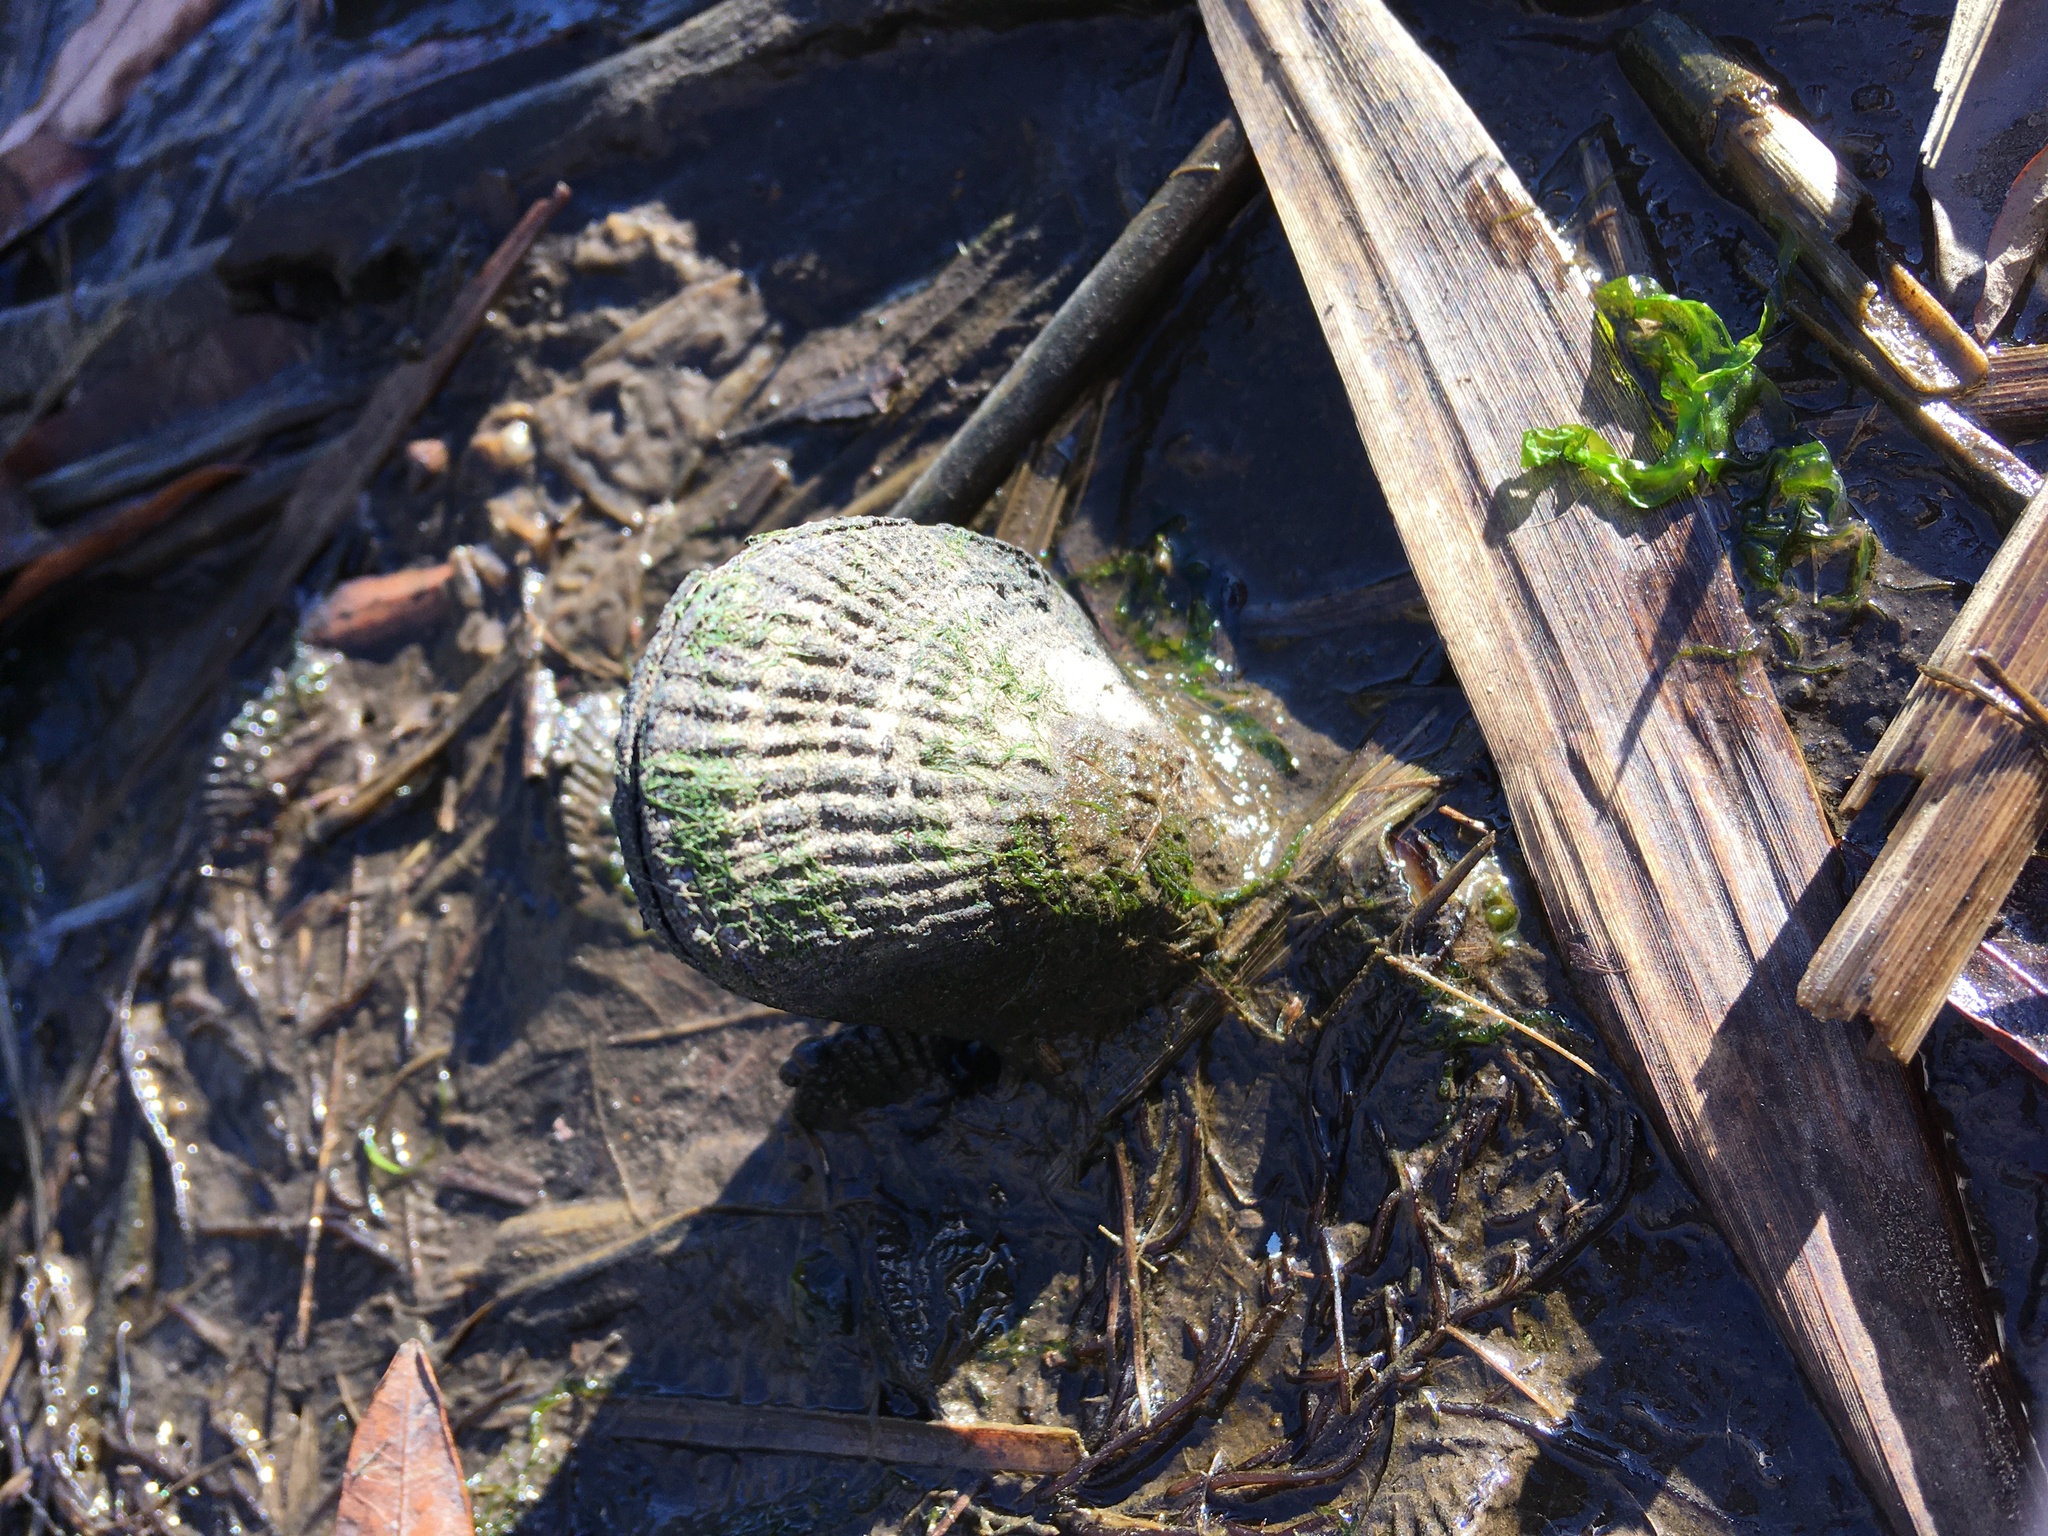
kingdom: Animalia
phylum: Mollusca
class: Bivalvia
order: Mytilida
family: Mytilidae
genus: Geukensia
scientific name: Geukensia demissa
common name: Ribbed mussel
